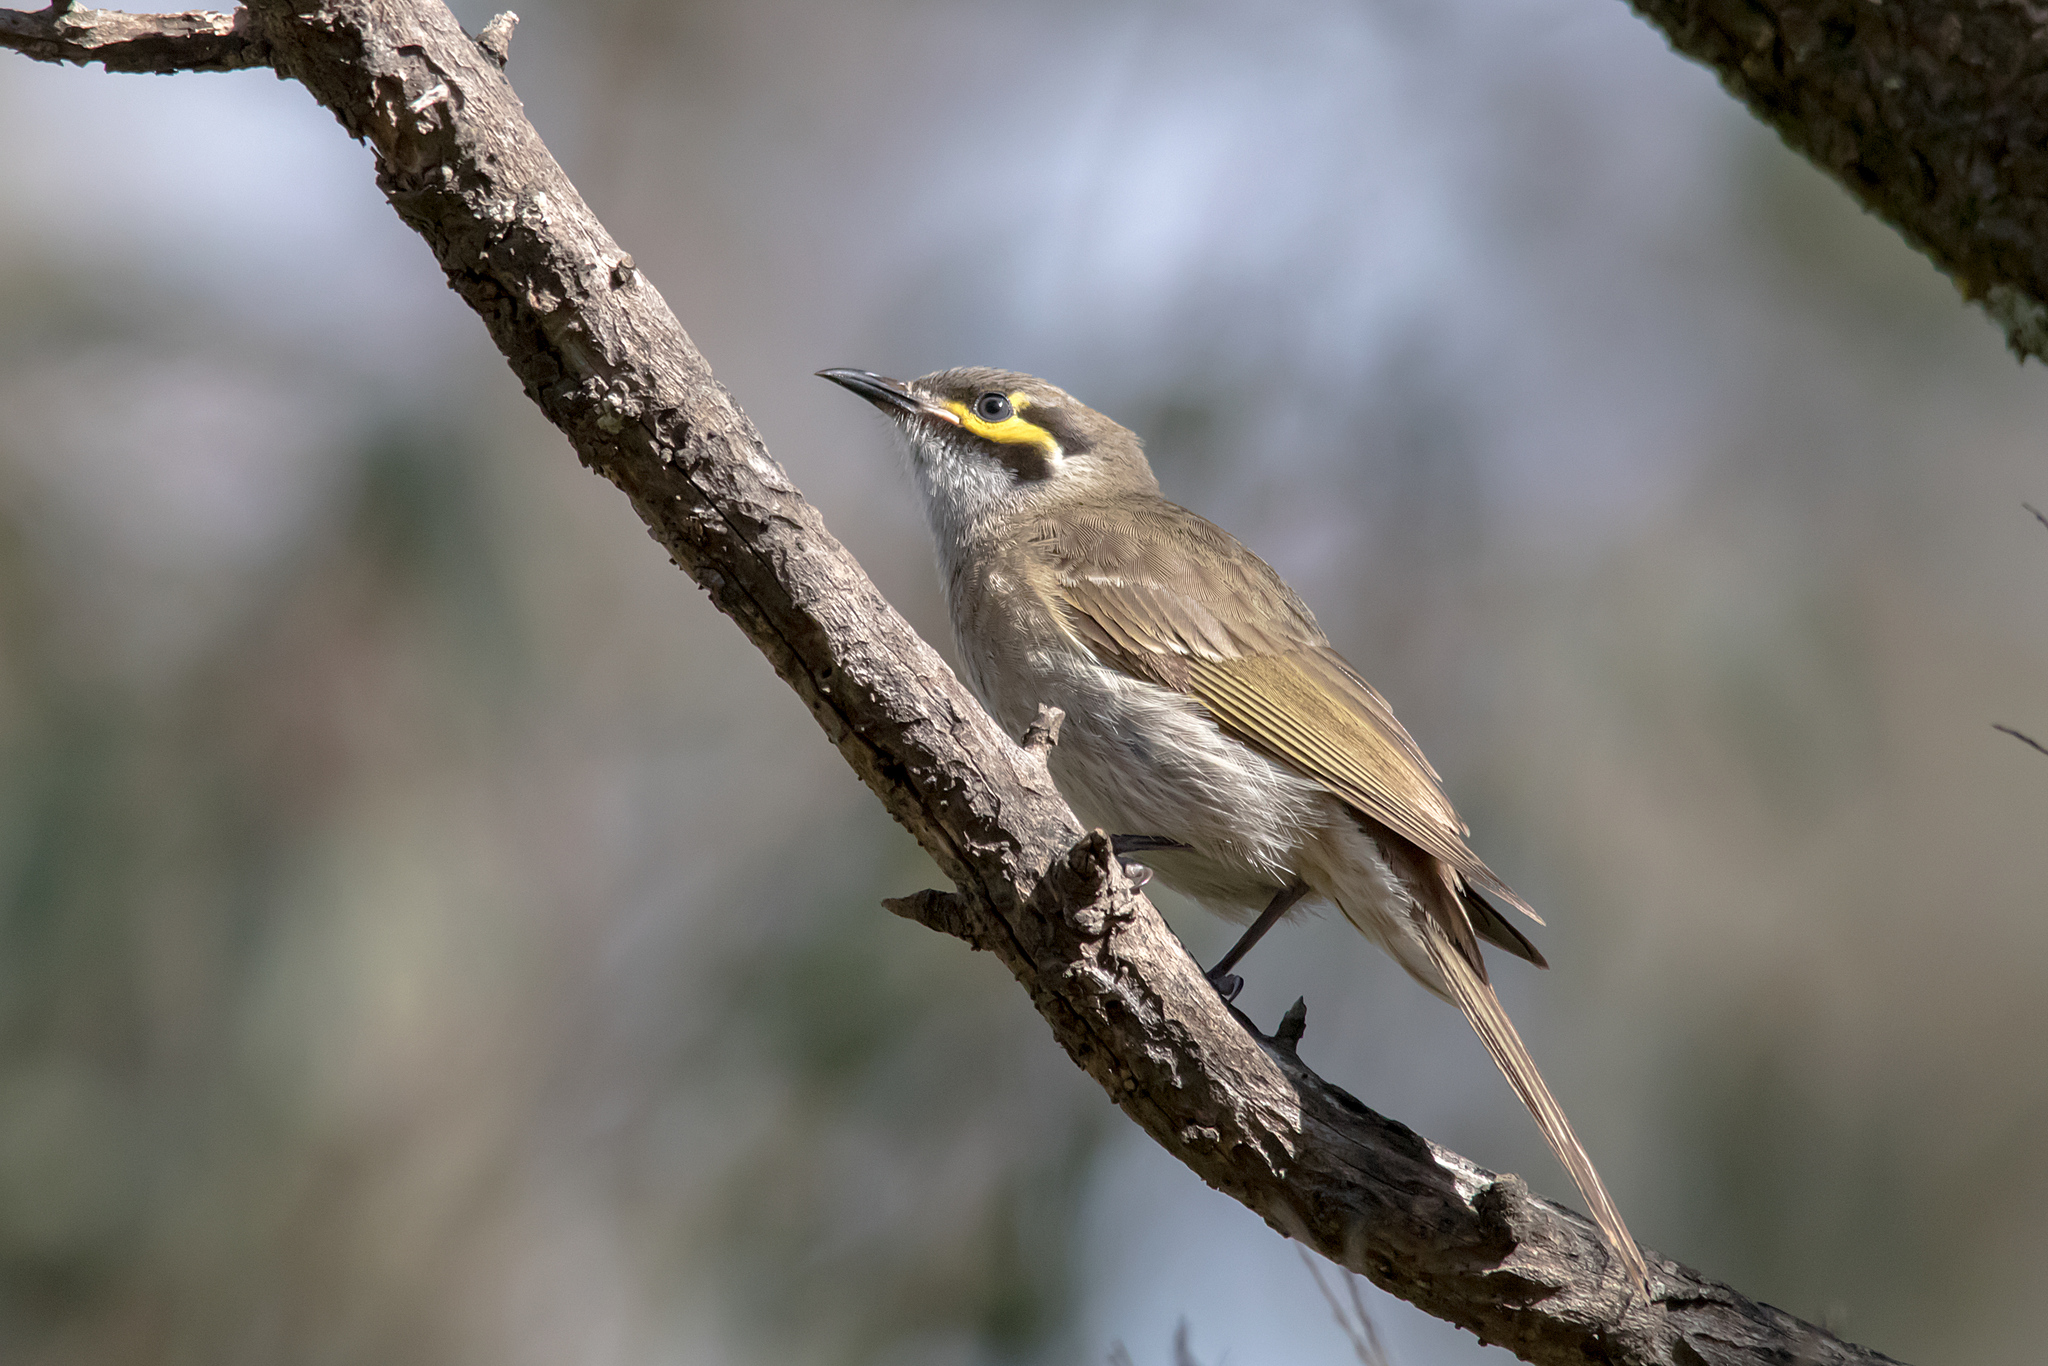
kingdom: Animalia
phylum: Chordata
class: Aves
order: Passeriformes
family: Meliphagidae
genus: Caligavis
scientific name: Caligavis chrysops
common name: Yellow-faced honeyeater
